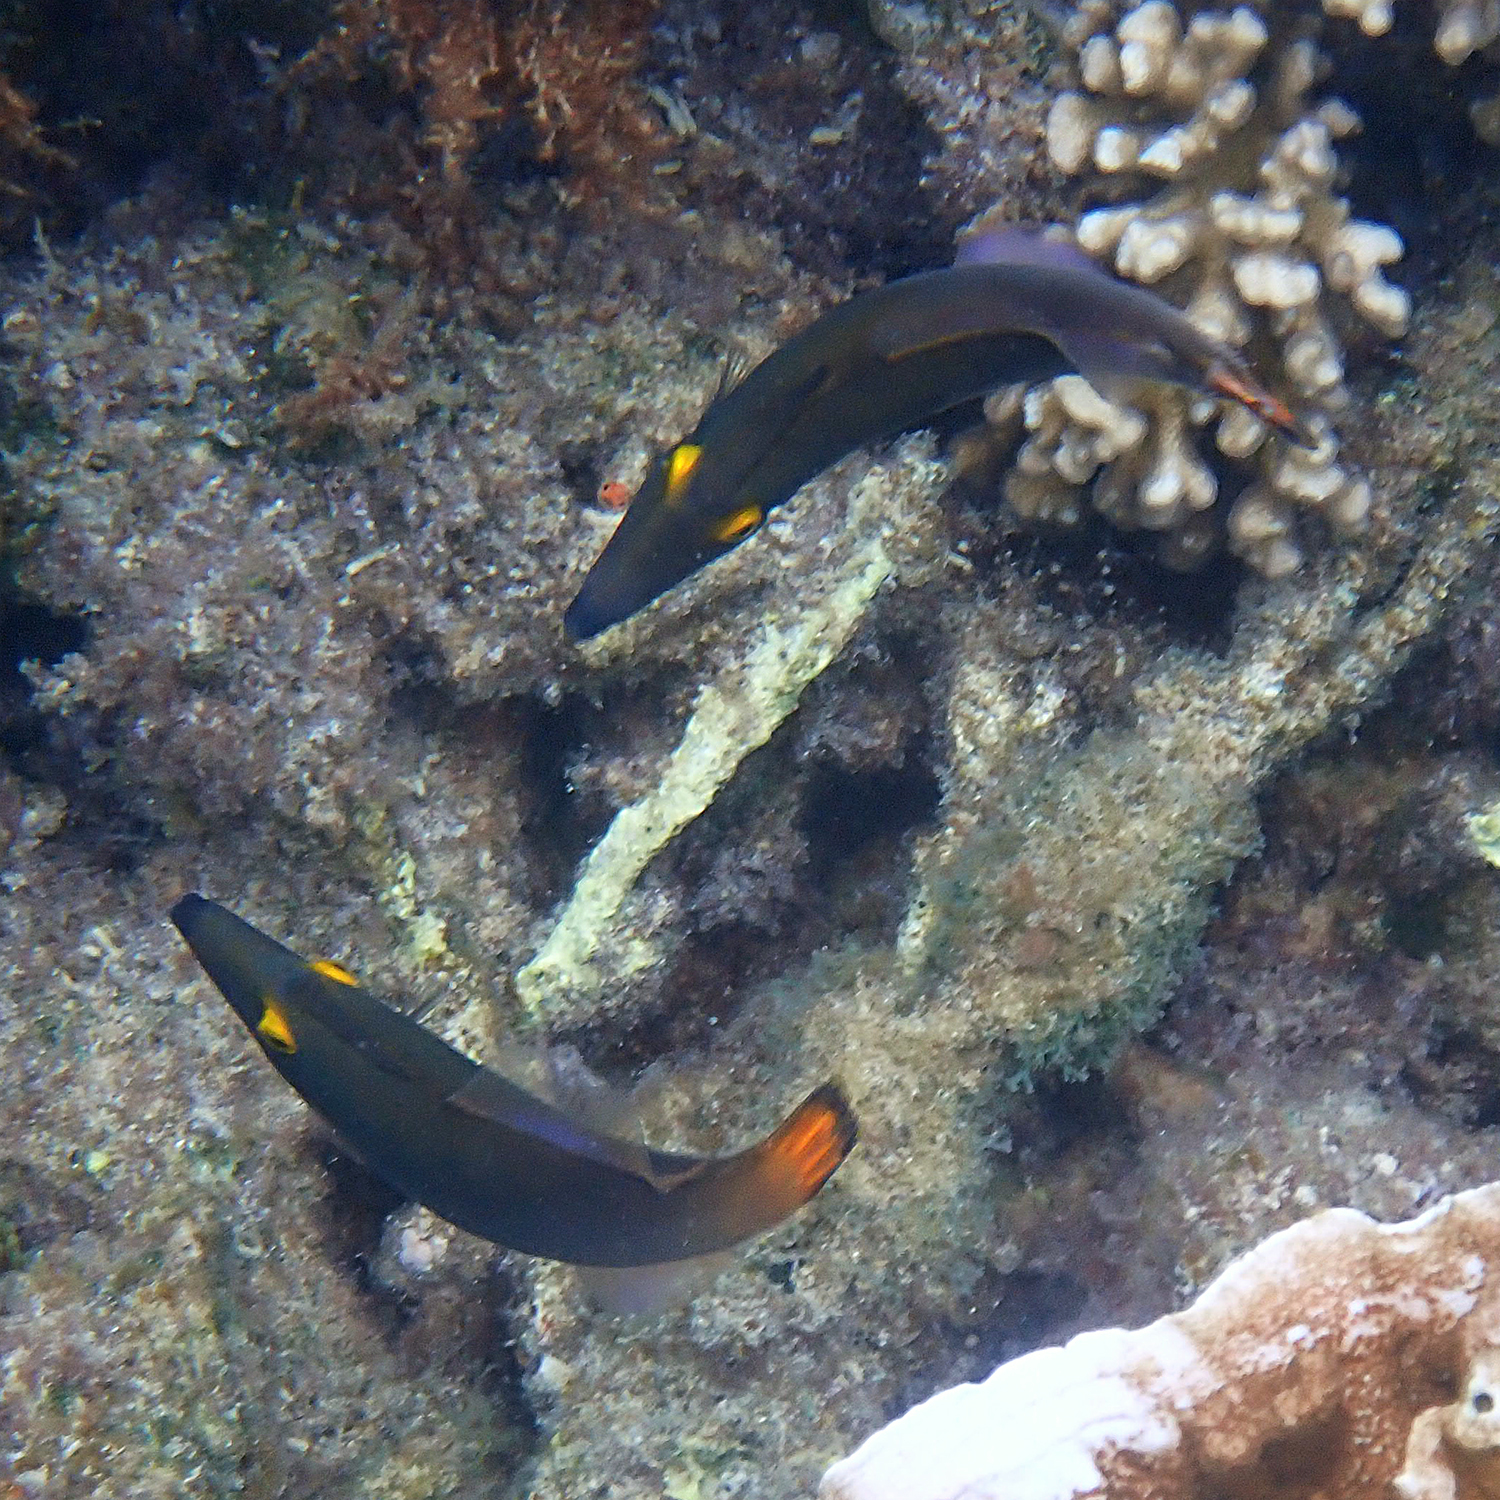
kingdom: Animalia
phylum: Chordata
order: Tetraodontiformes
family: Monacanthidae
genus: Pervagor
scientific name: Pervagor alternans
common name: Yelloweye filefish
